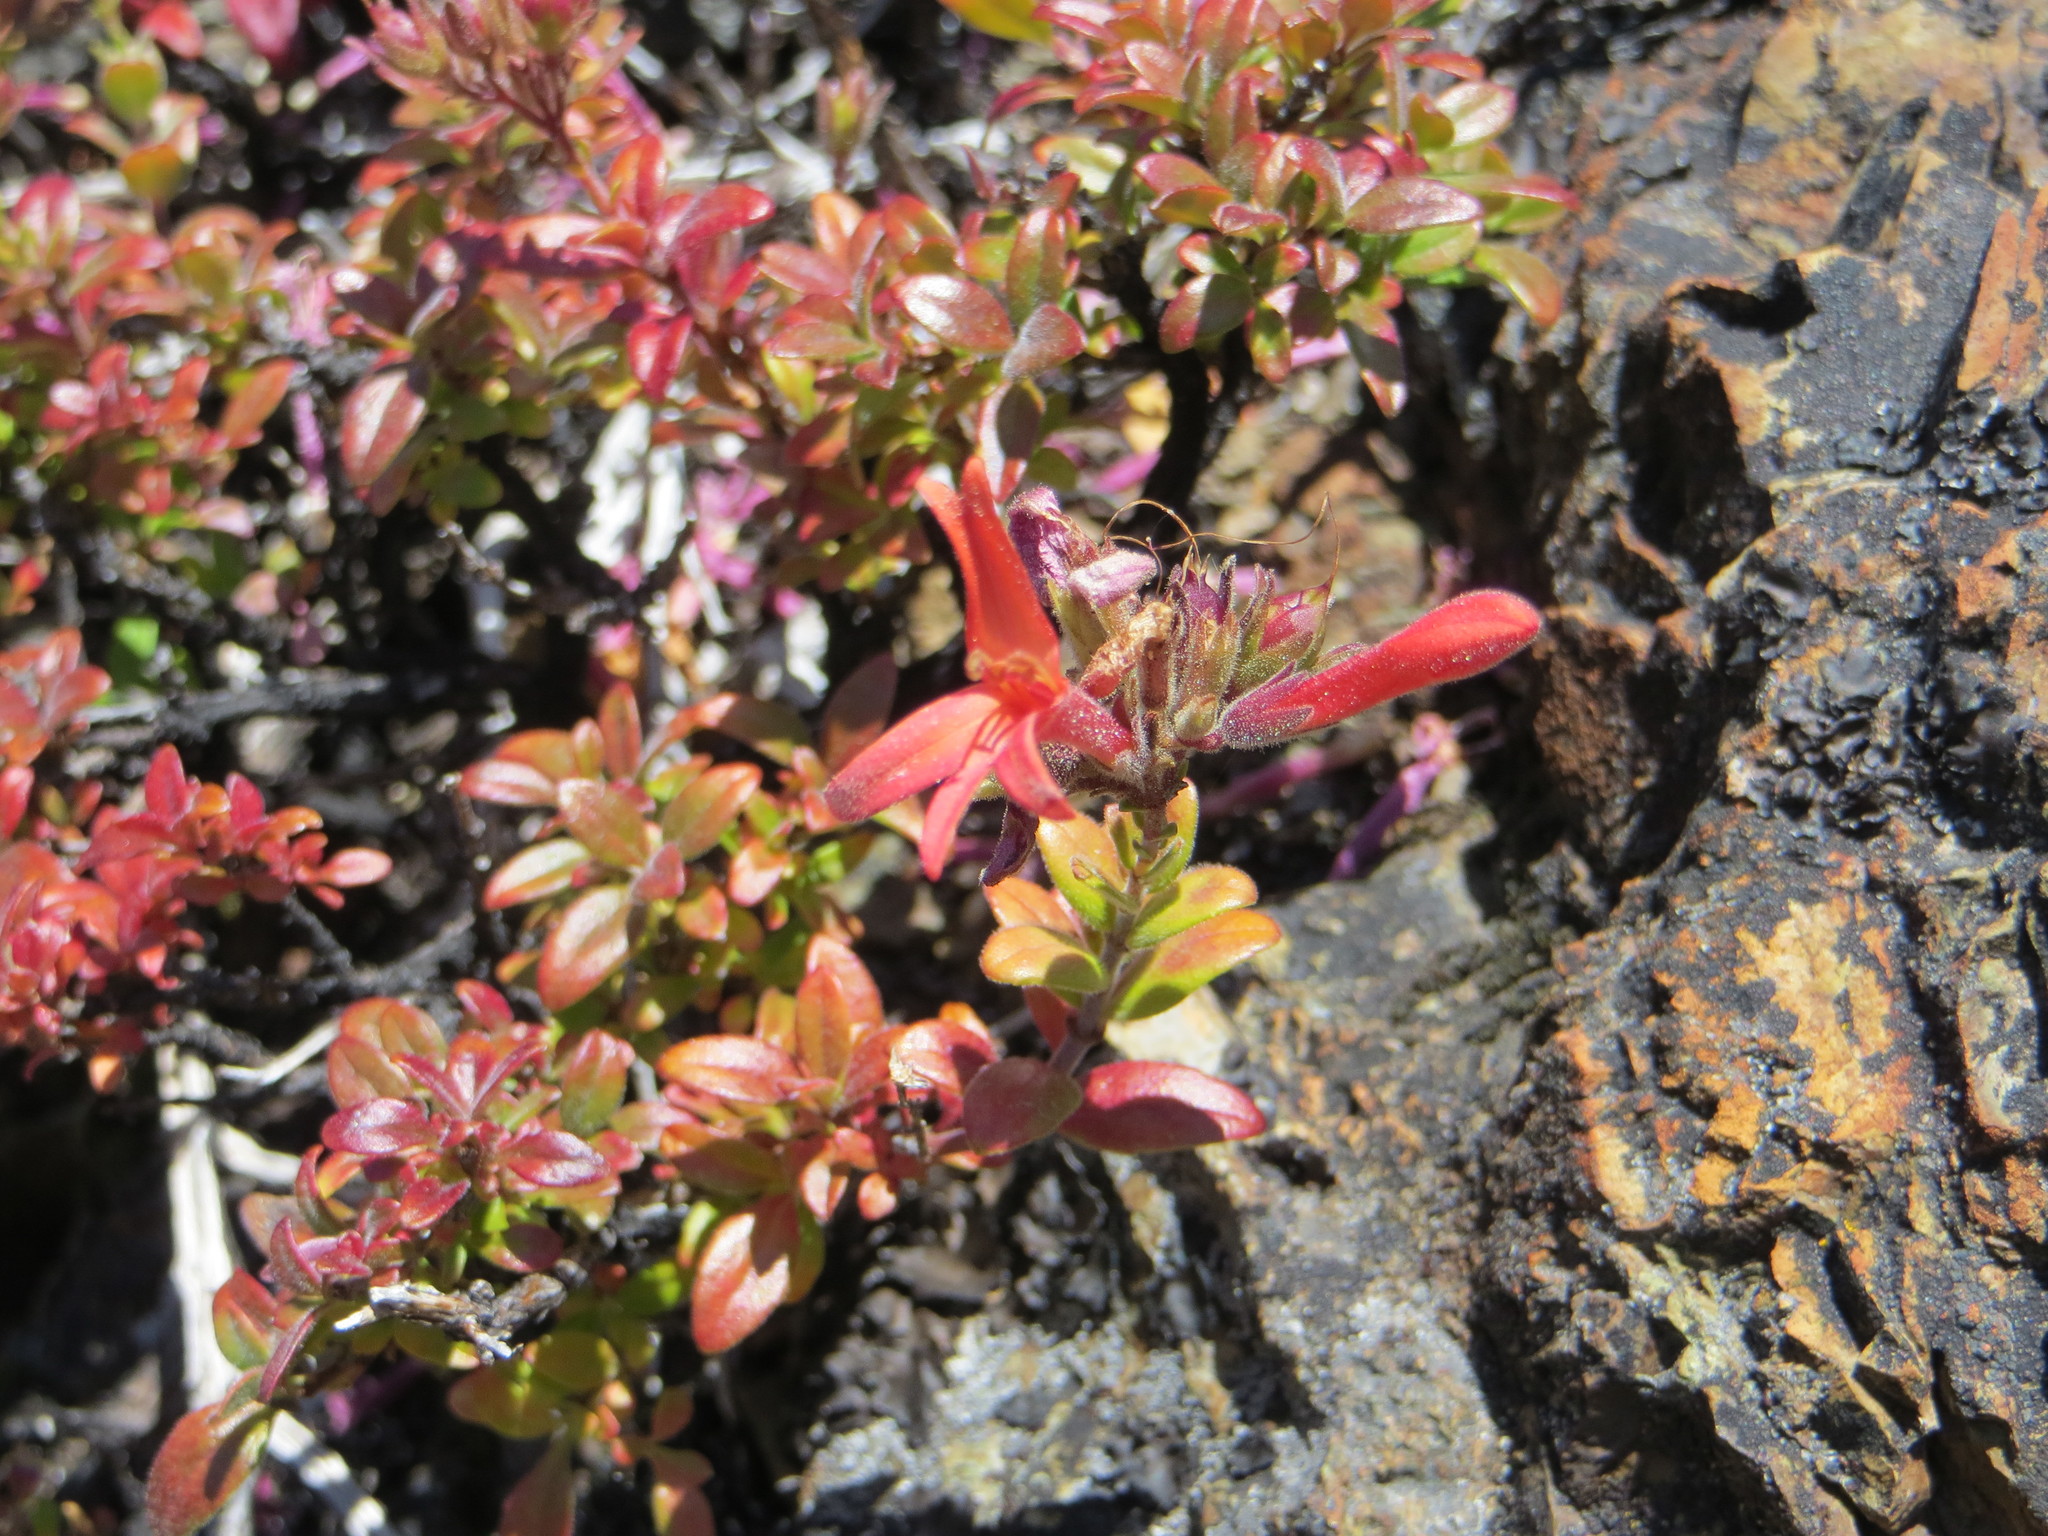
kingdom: Plantae
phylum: Tracheophyta
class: Magnoliopsida
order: Lamiales
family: Plantaginaceae
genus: Keckiella
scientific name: Keckiella corymbosa
